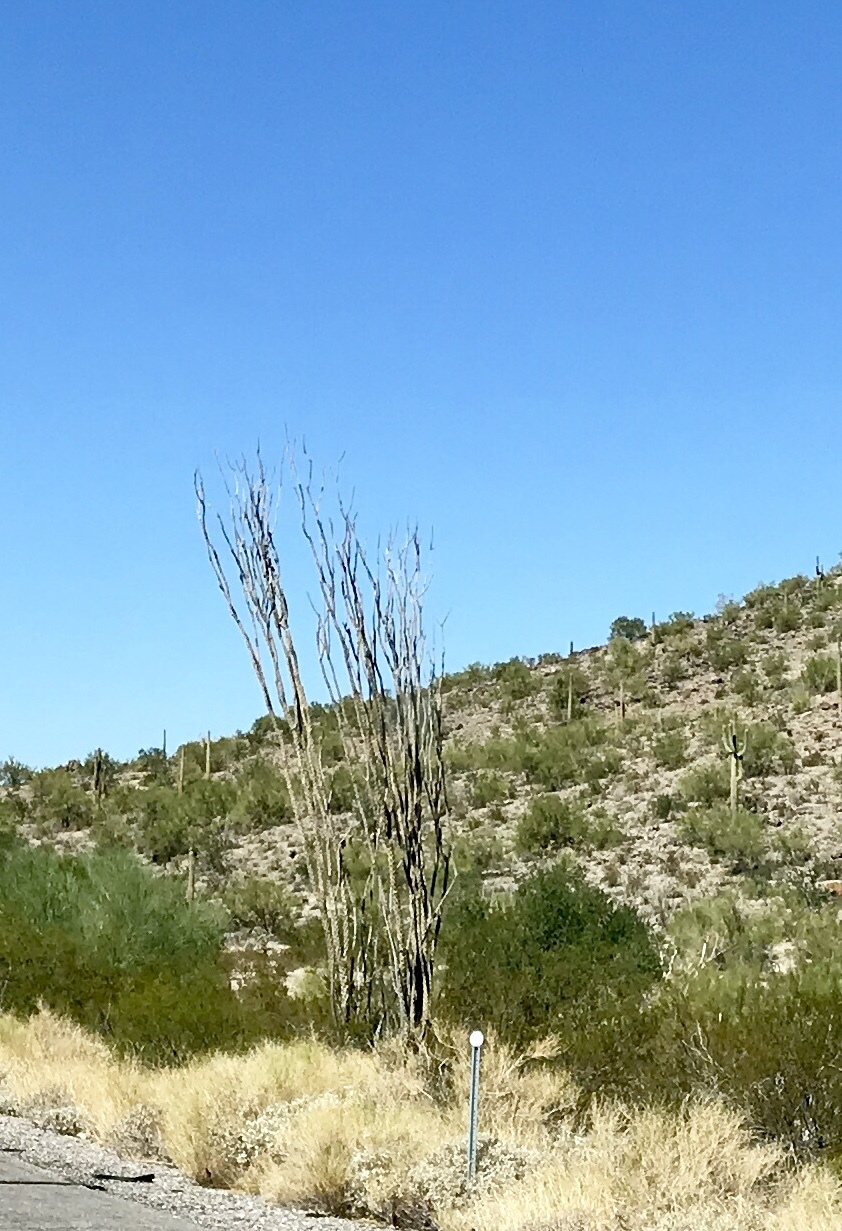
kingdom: Plantae
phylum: Tracheophyta
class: Magnoliopsida
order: Ericales
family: Fouquieriaceae
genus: Fouquieria
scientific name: Fouquieria splendens
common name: Vine-cactus
